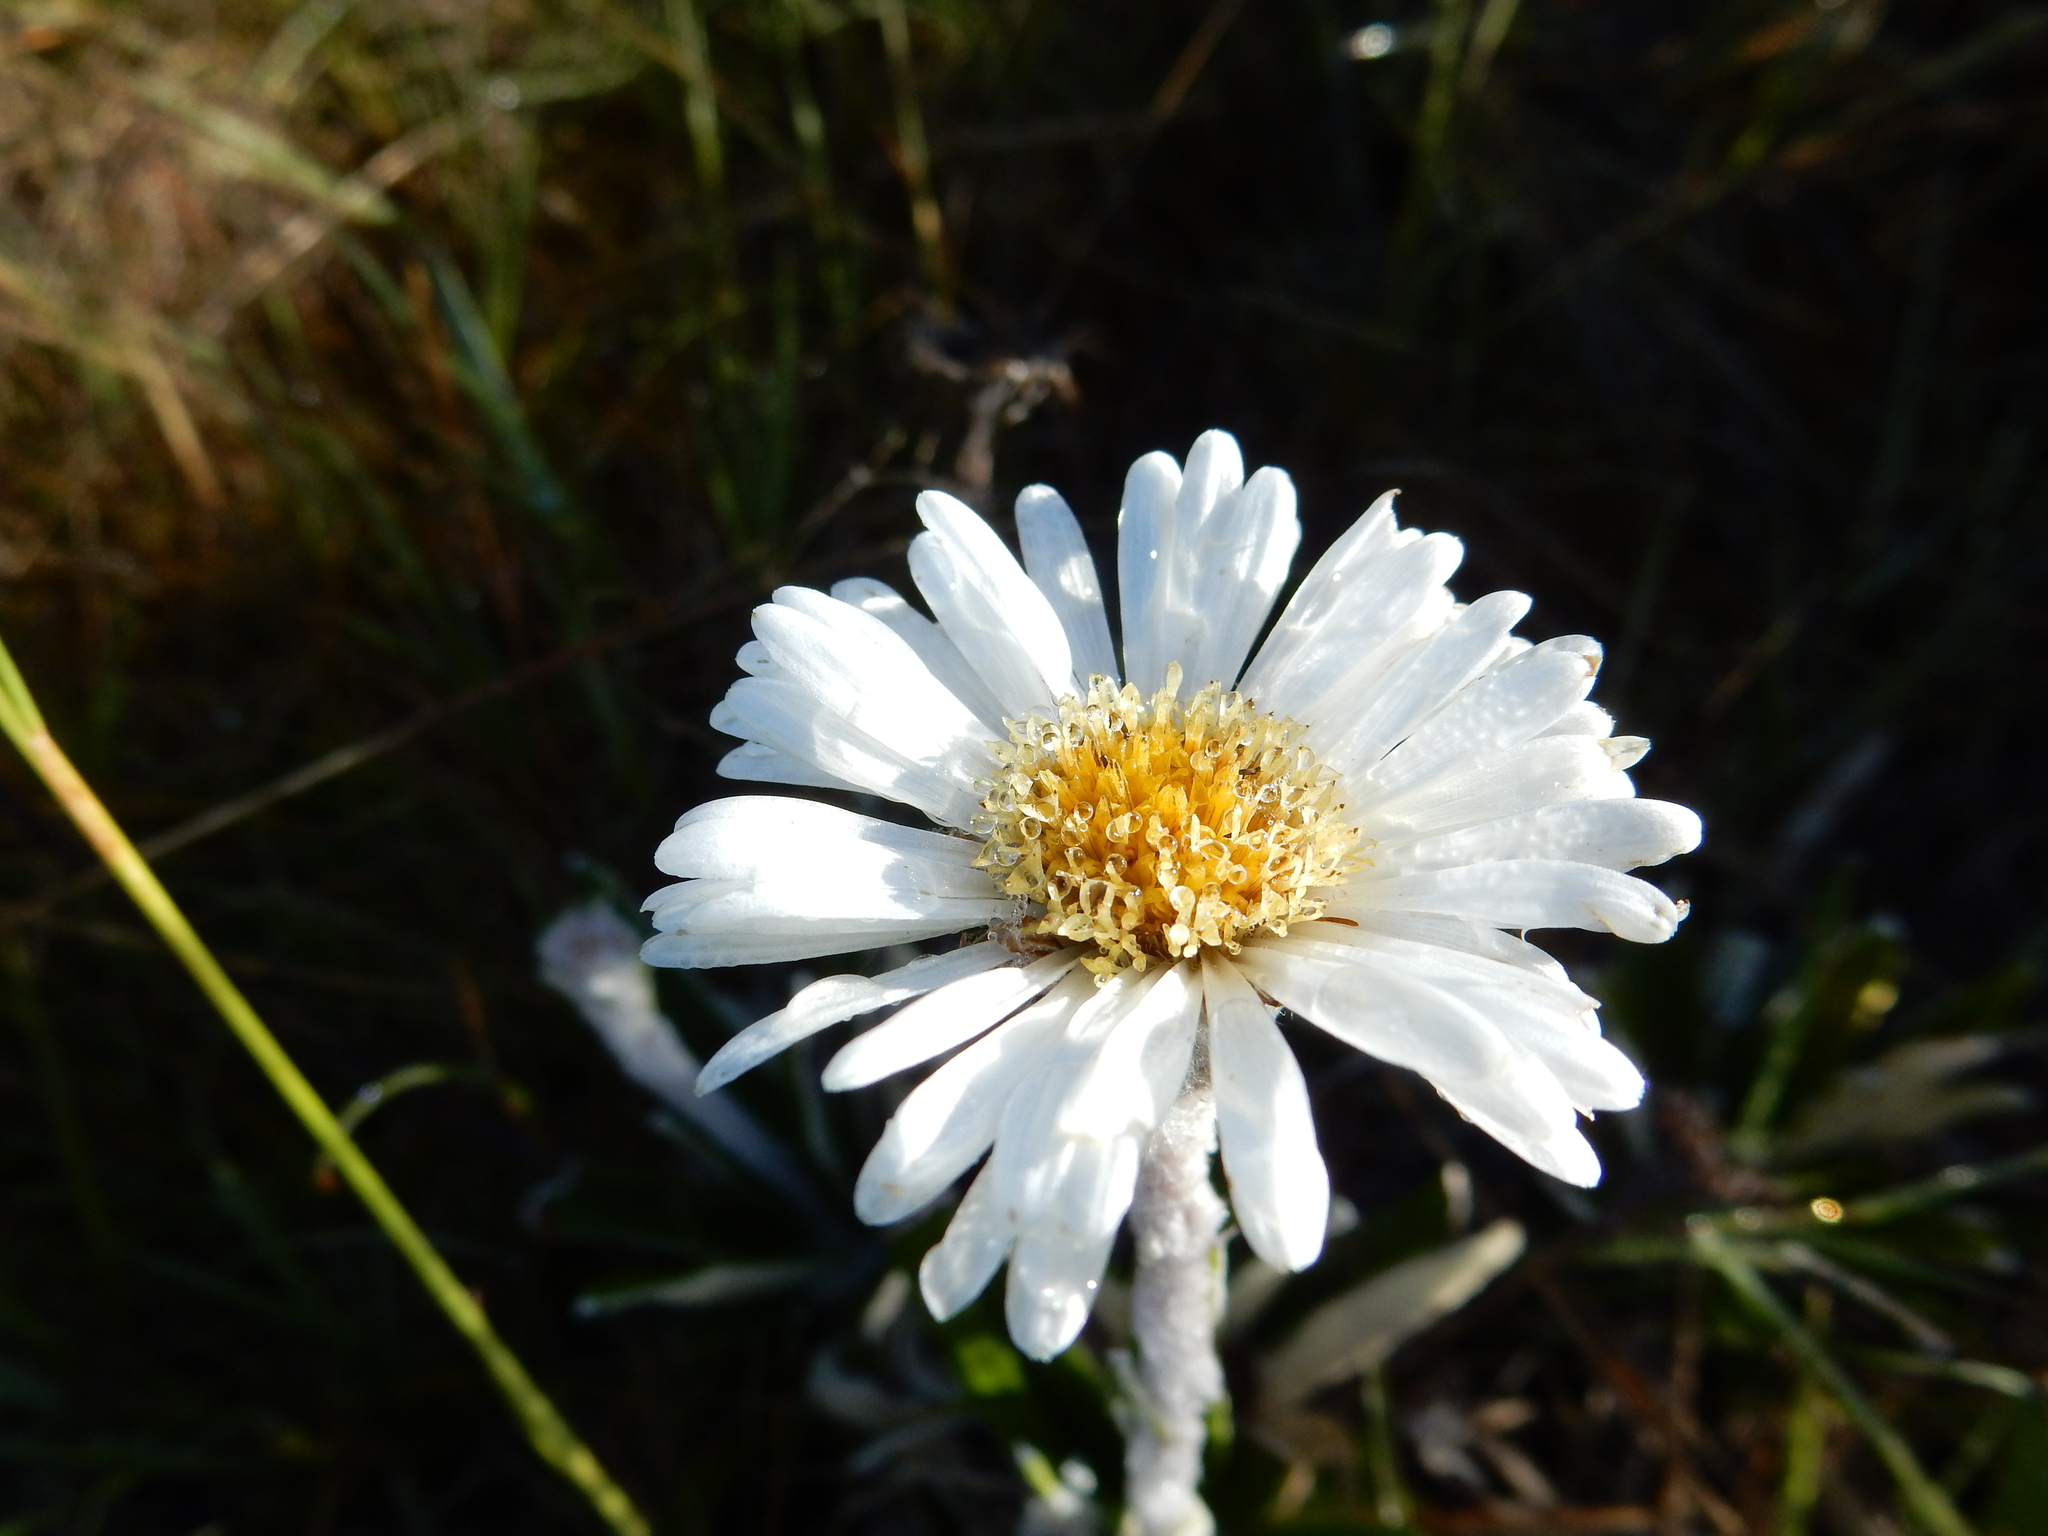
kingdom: Plantae
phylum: Tracheophyta
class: Magnoliopsida
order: Asterales
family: Asteraceae
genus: Celmisia
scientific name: Celmisia spectabilis
